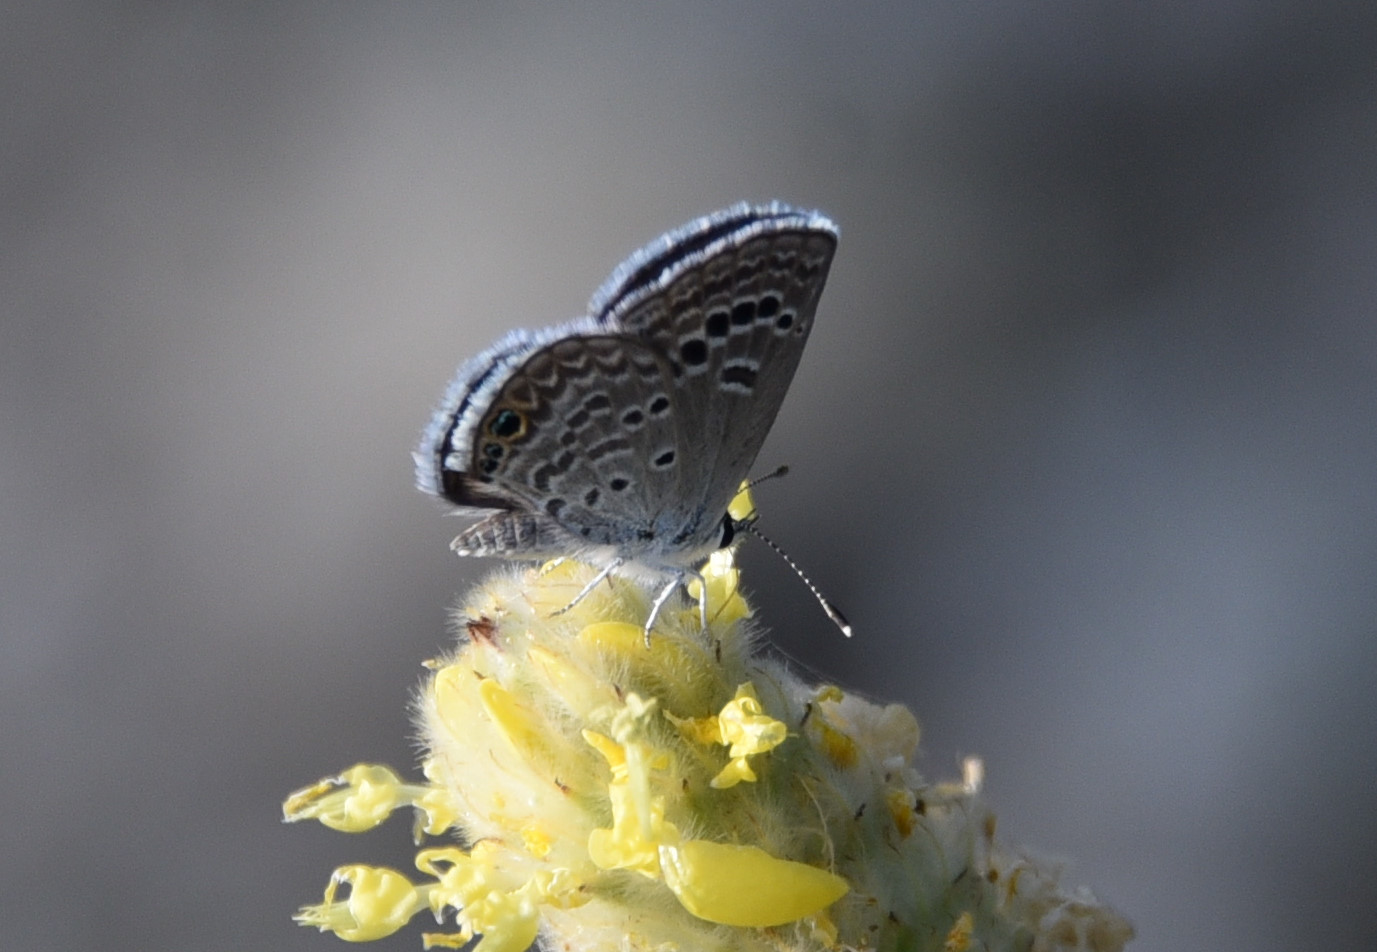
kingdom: Animalia
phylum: Arthropoda
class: Insecta
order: Lepidoptera
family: Lycaenidae
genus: Echinargus
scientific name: Echinargus isola
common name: Reakirt's blue
